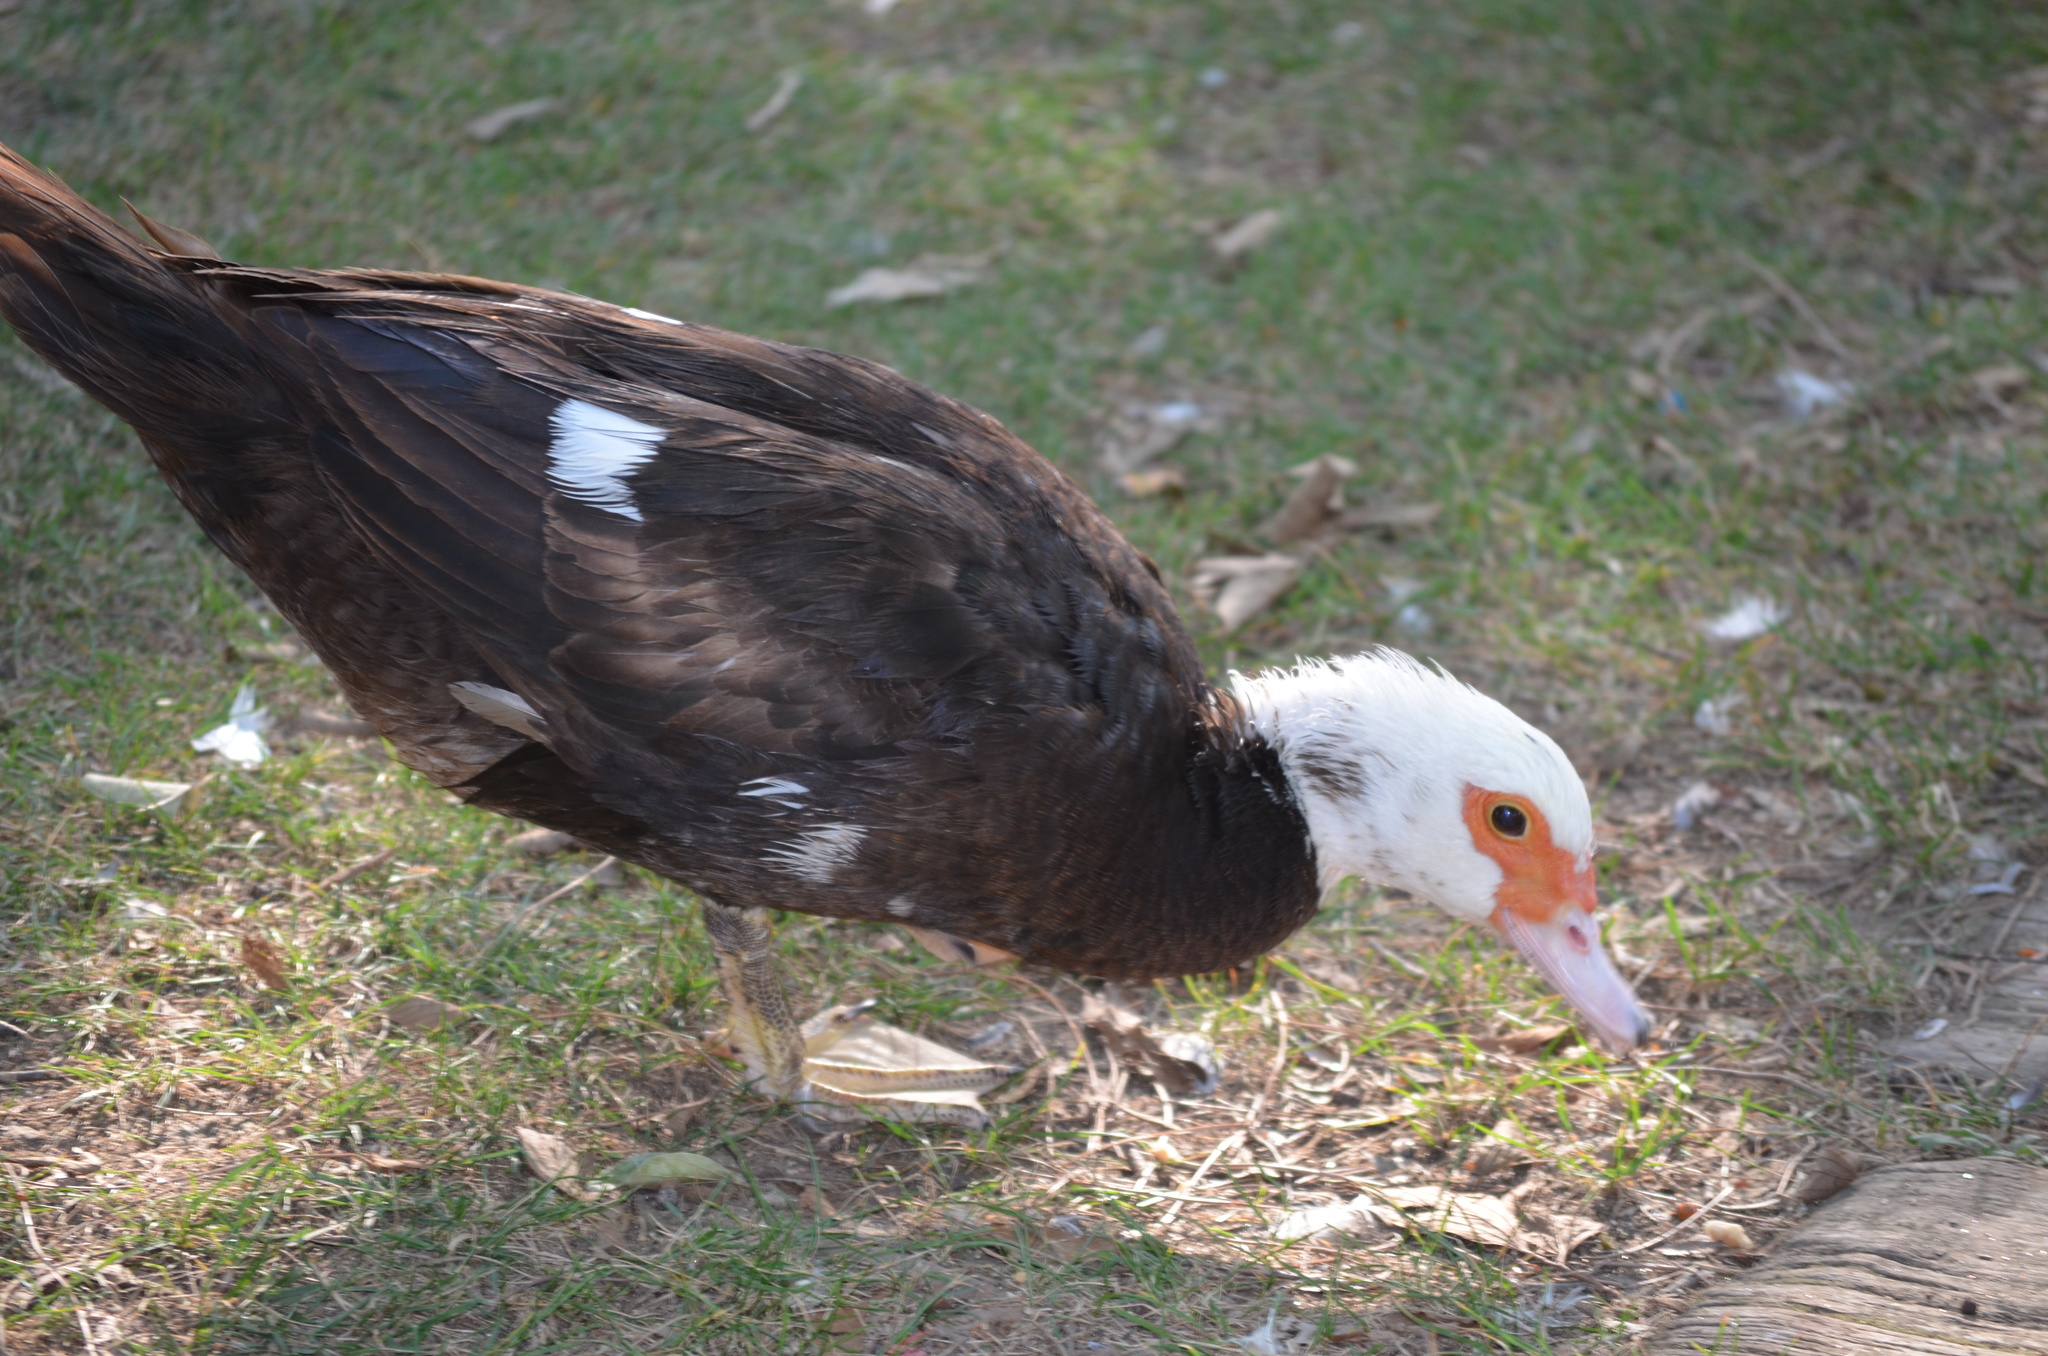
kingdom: Animalia
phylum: Chordata
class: Aves
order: Anseriformes
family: Anatidae
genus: Cairina
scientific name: Cairina moschata
